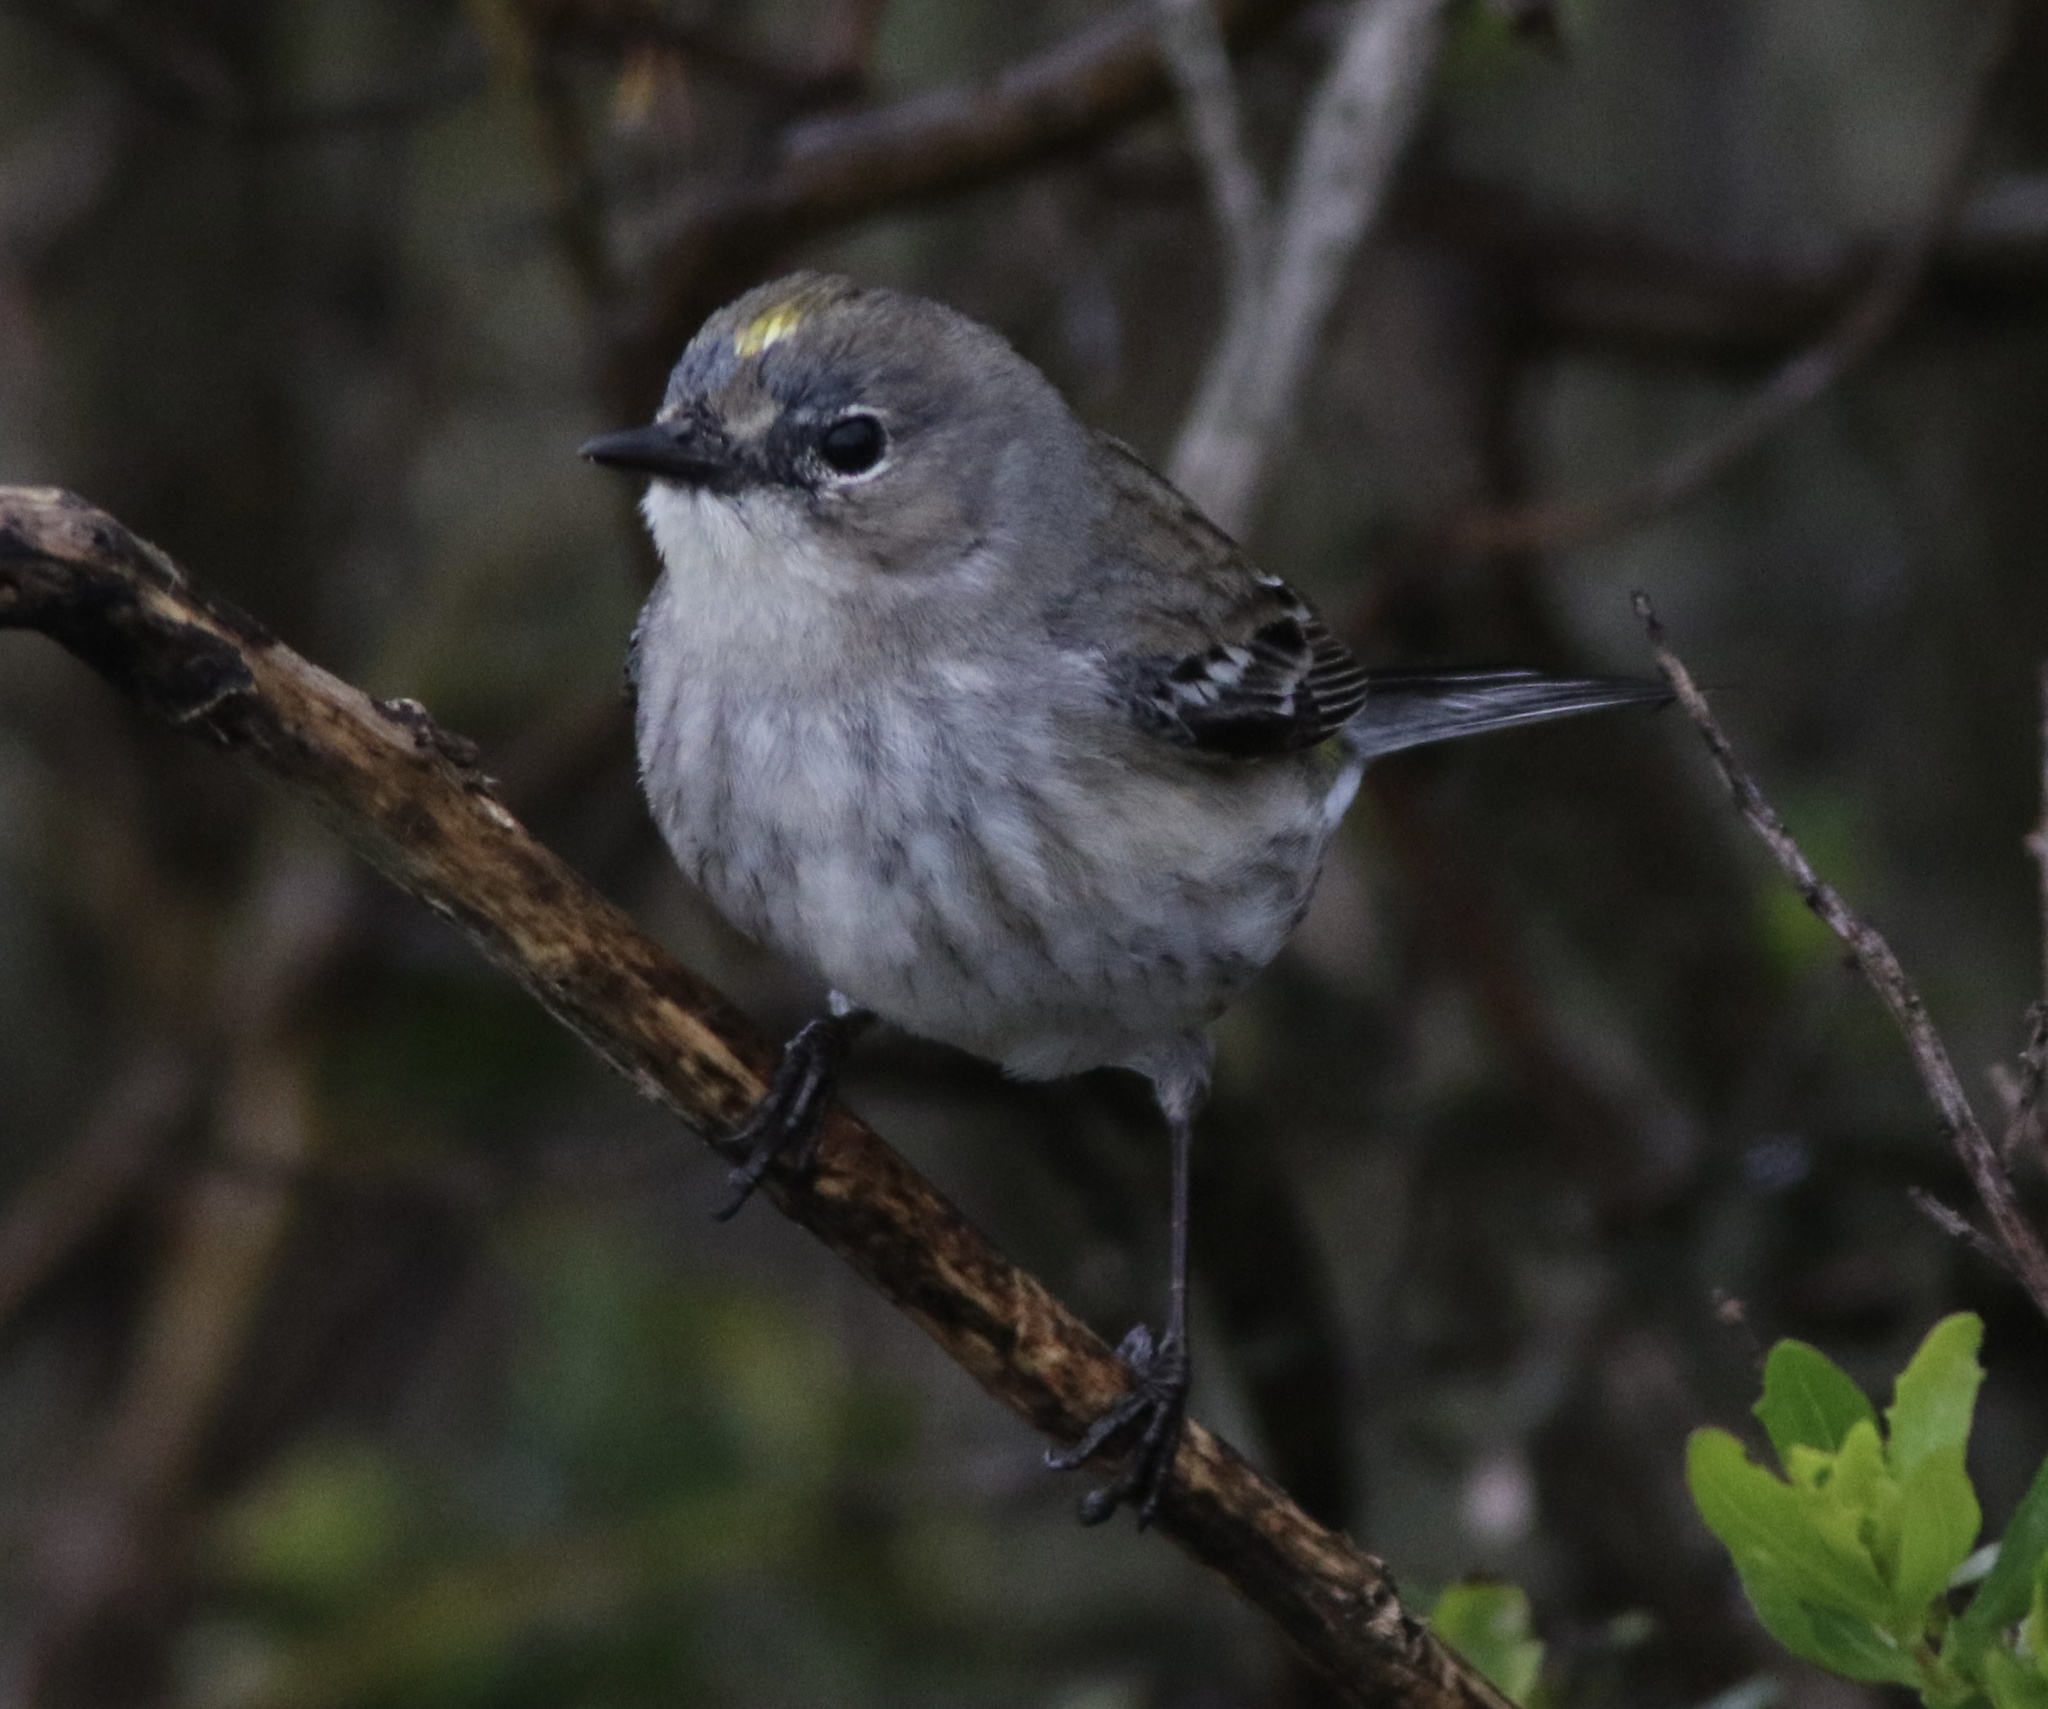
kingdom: Animalia
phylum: Chordata
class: Aves
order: Passeriformes
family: Parulidae
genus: Setophaga
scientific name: Setophaga coronata
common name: Myrtle warbler
